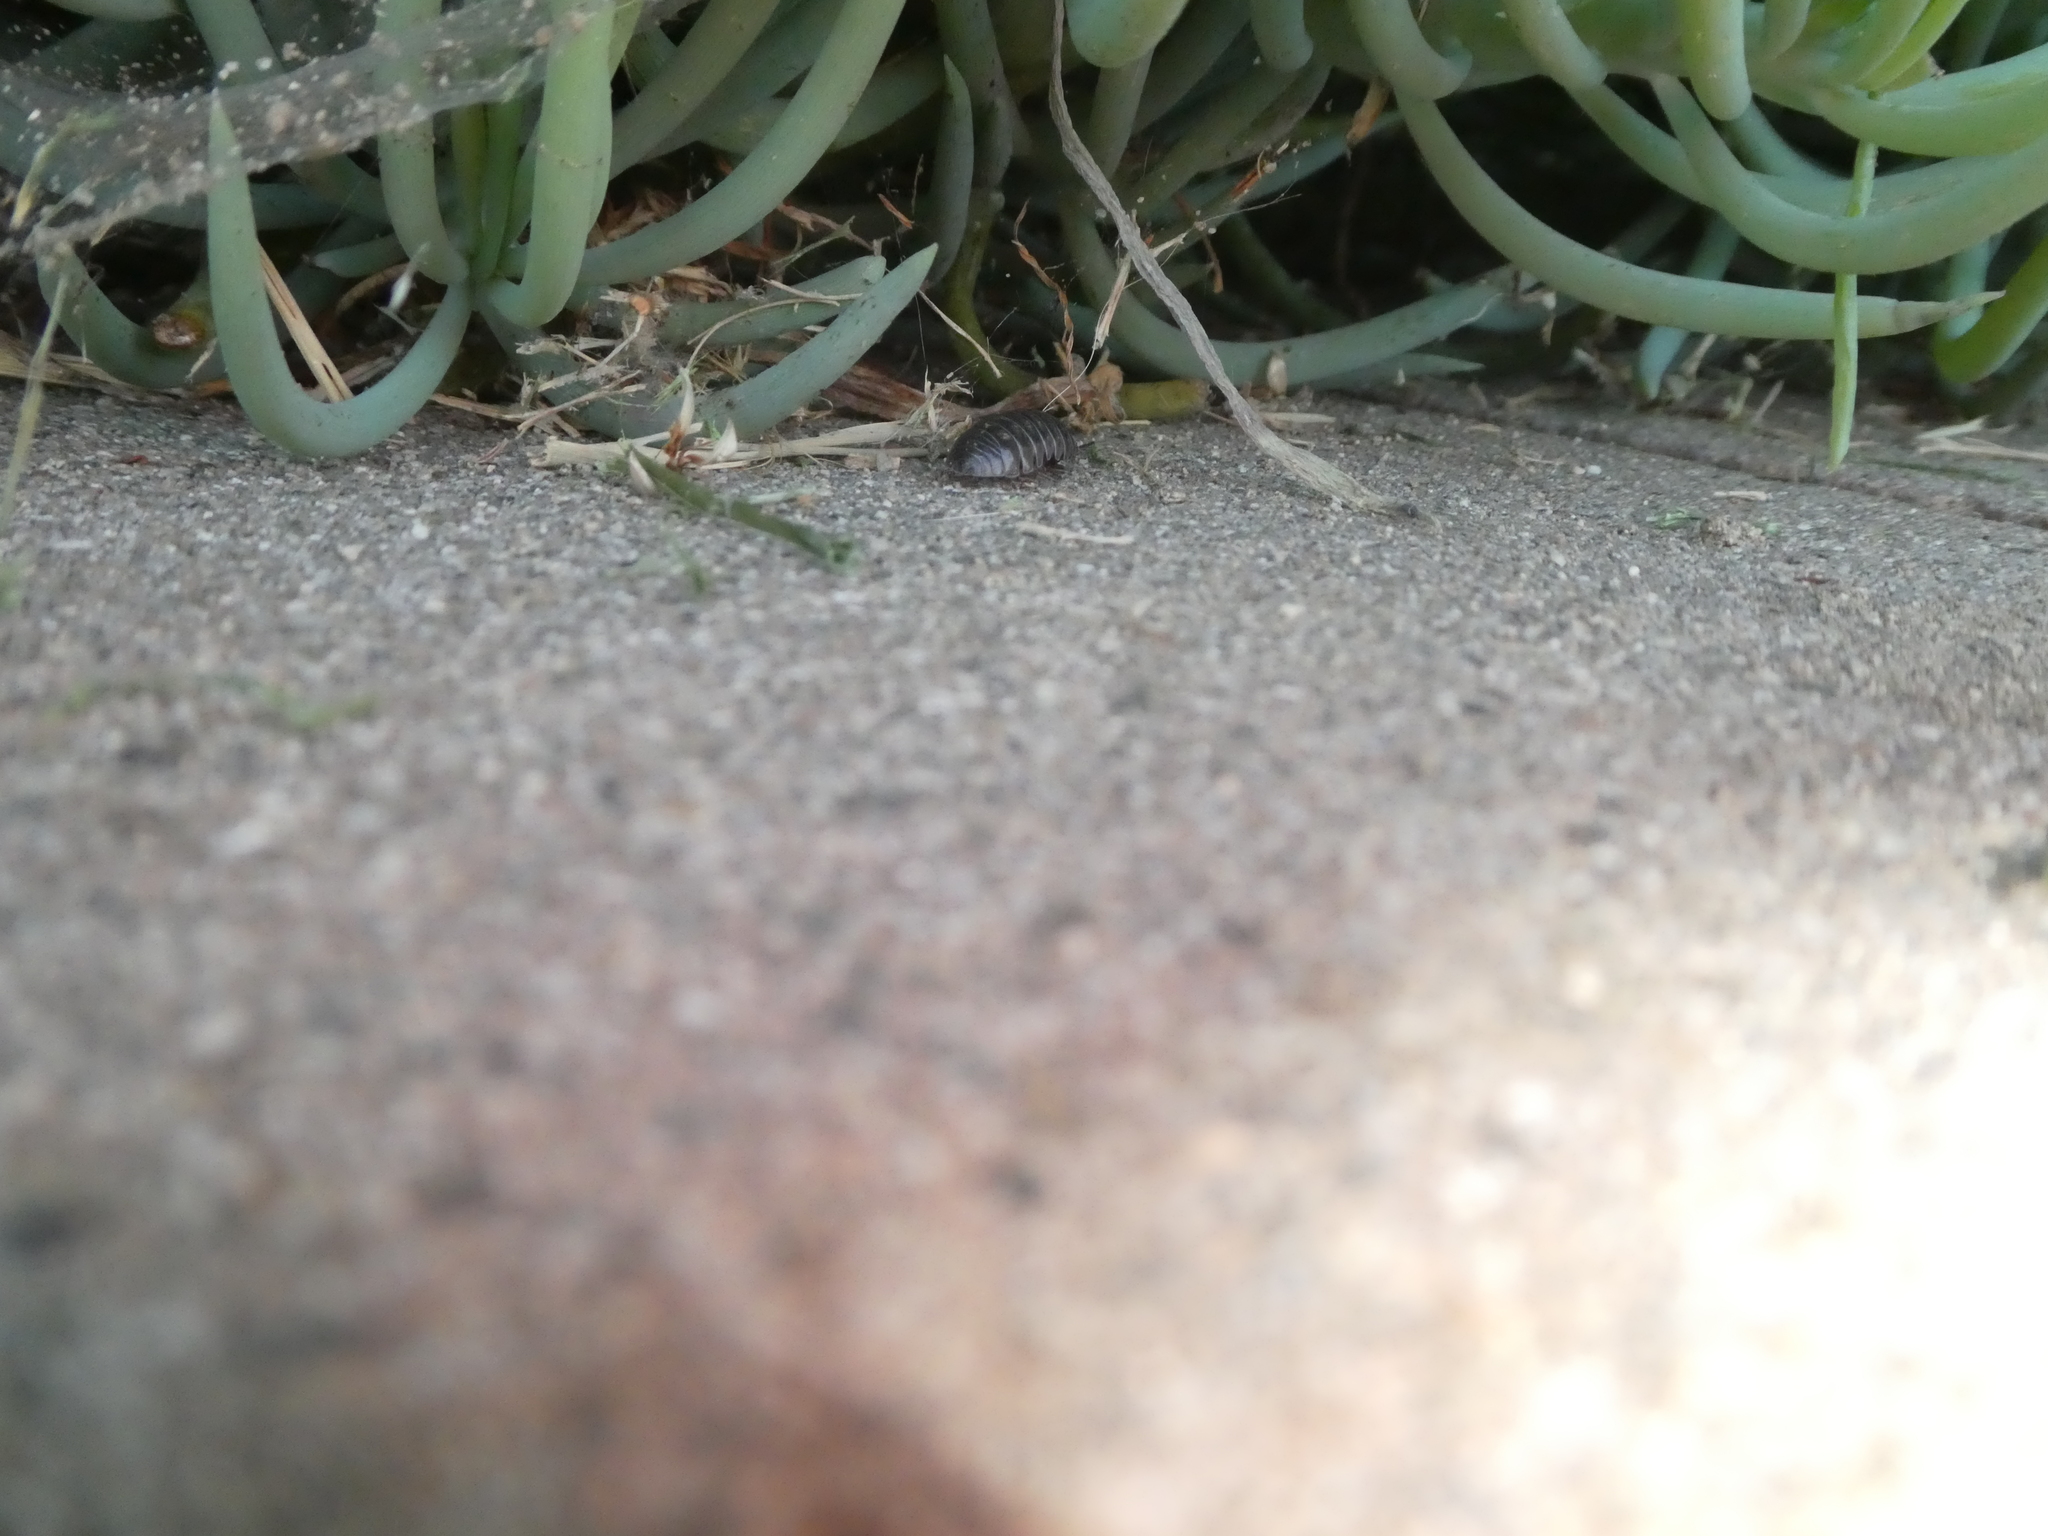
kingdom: Animalia
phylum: Arthropoda
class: Malacostraca
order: Isopoda
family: Armadillidiidae
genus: Armadillidium
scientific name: Armadillidium vulgare
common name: Common pill woodlouse
